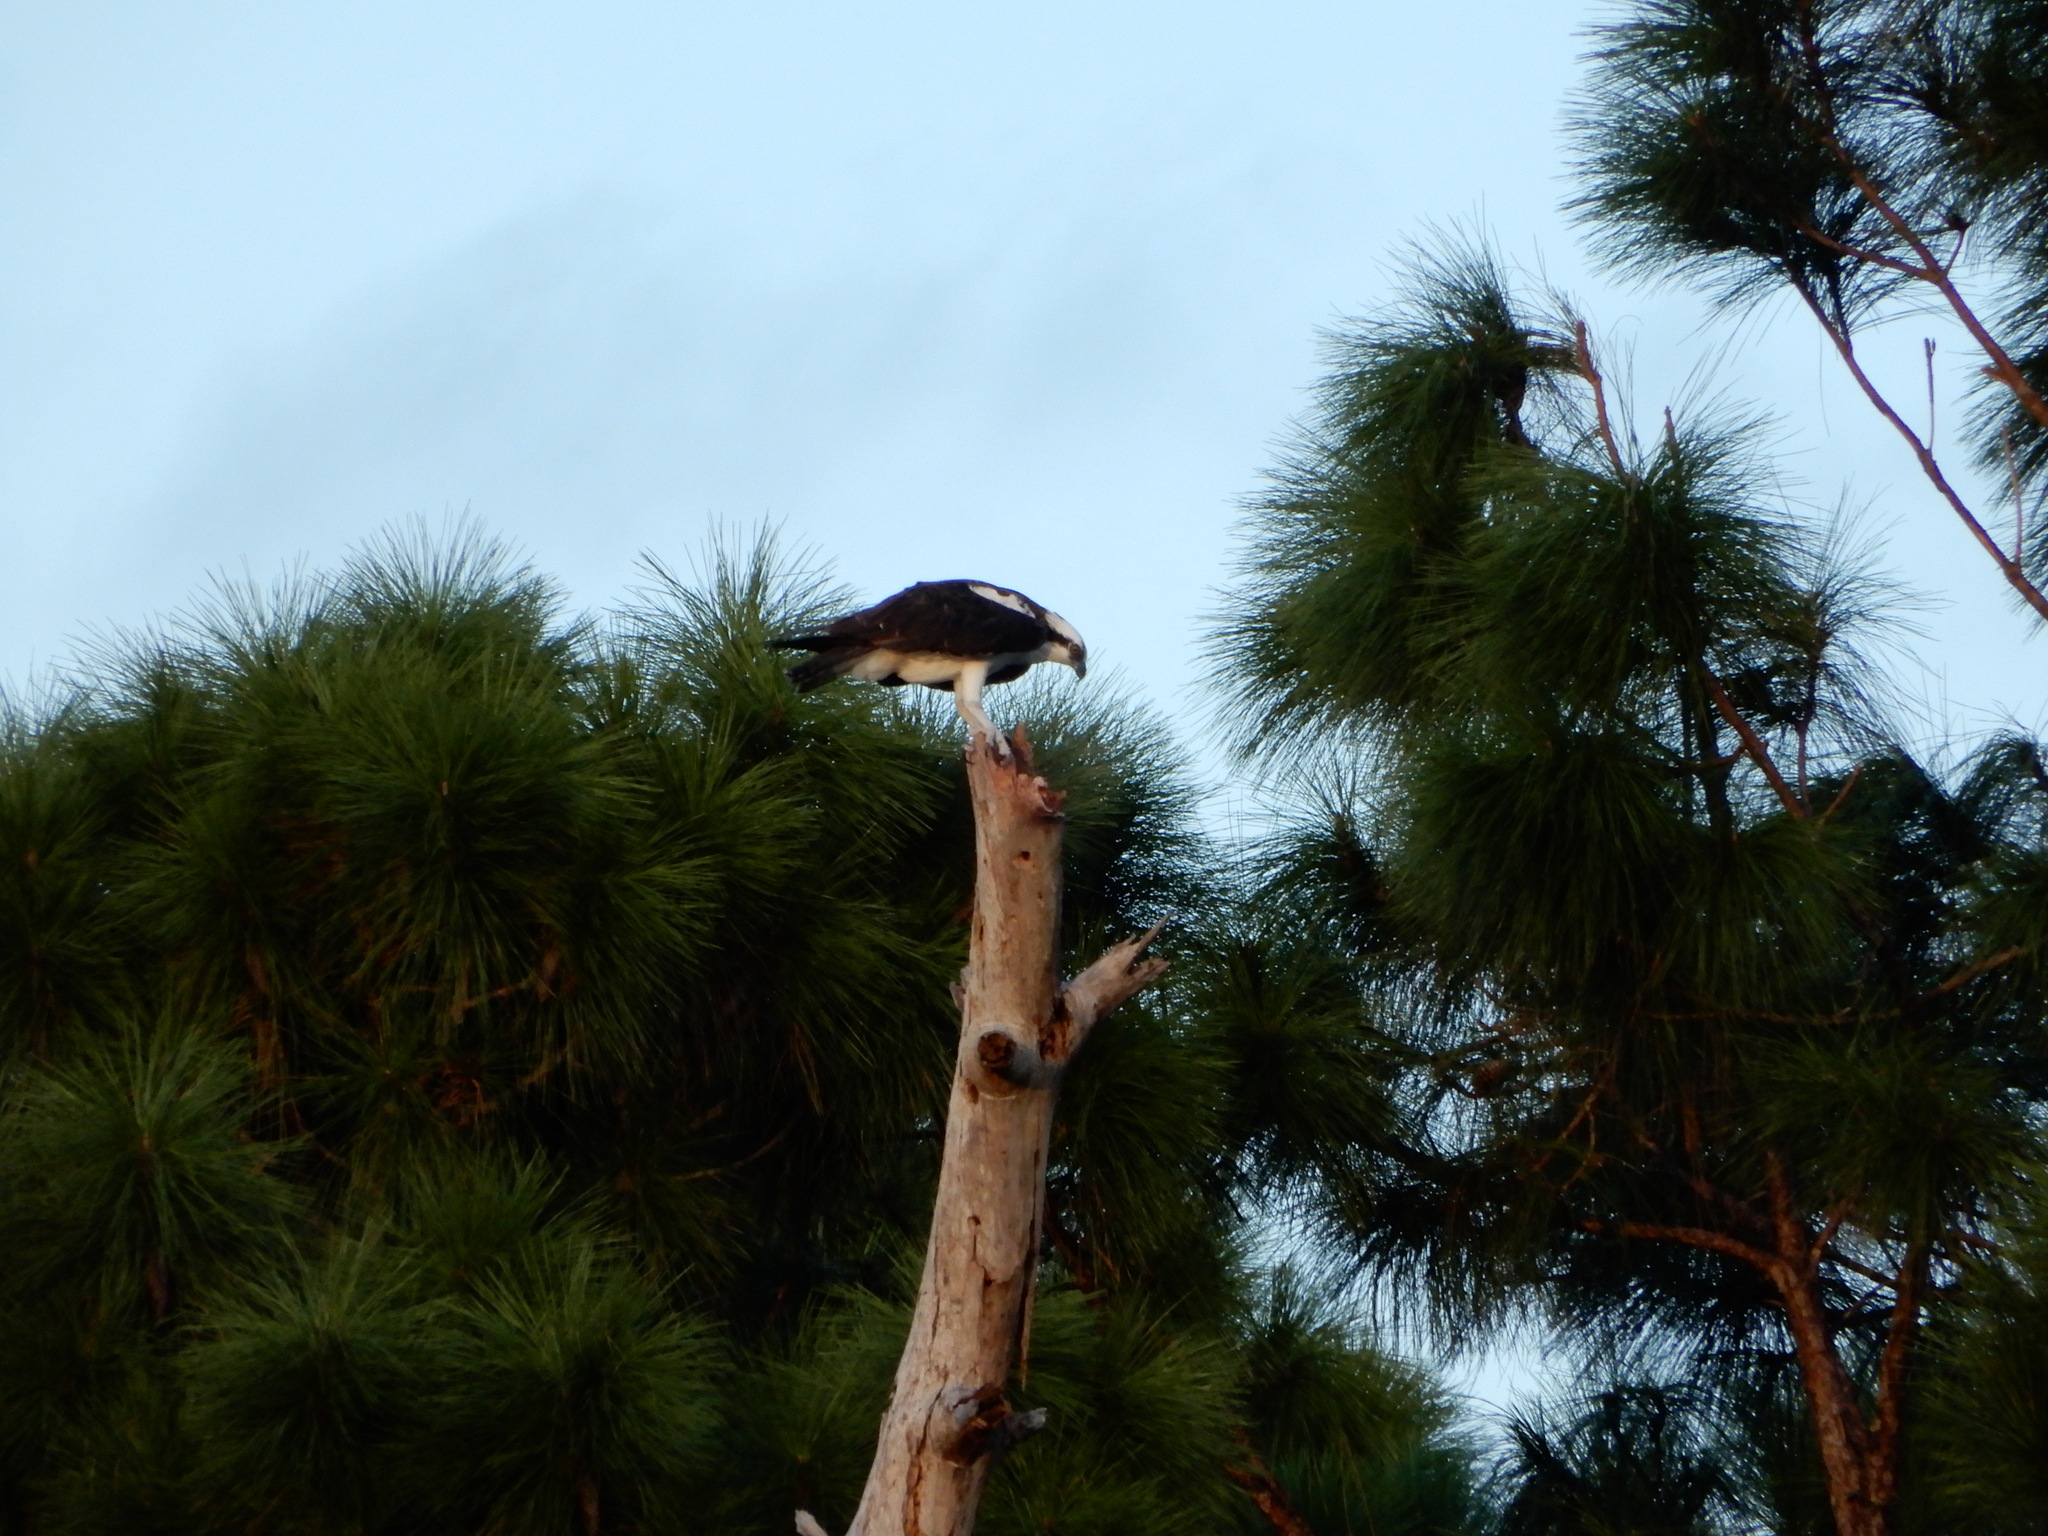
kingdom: Animalia
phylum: Chordata
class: Aves
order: Accipitriformes
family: Pandionidae
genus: Pandion
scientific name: Pandion haliaetus
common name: Osprey
